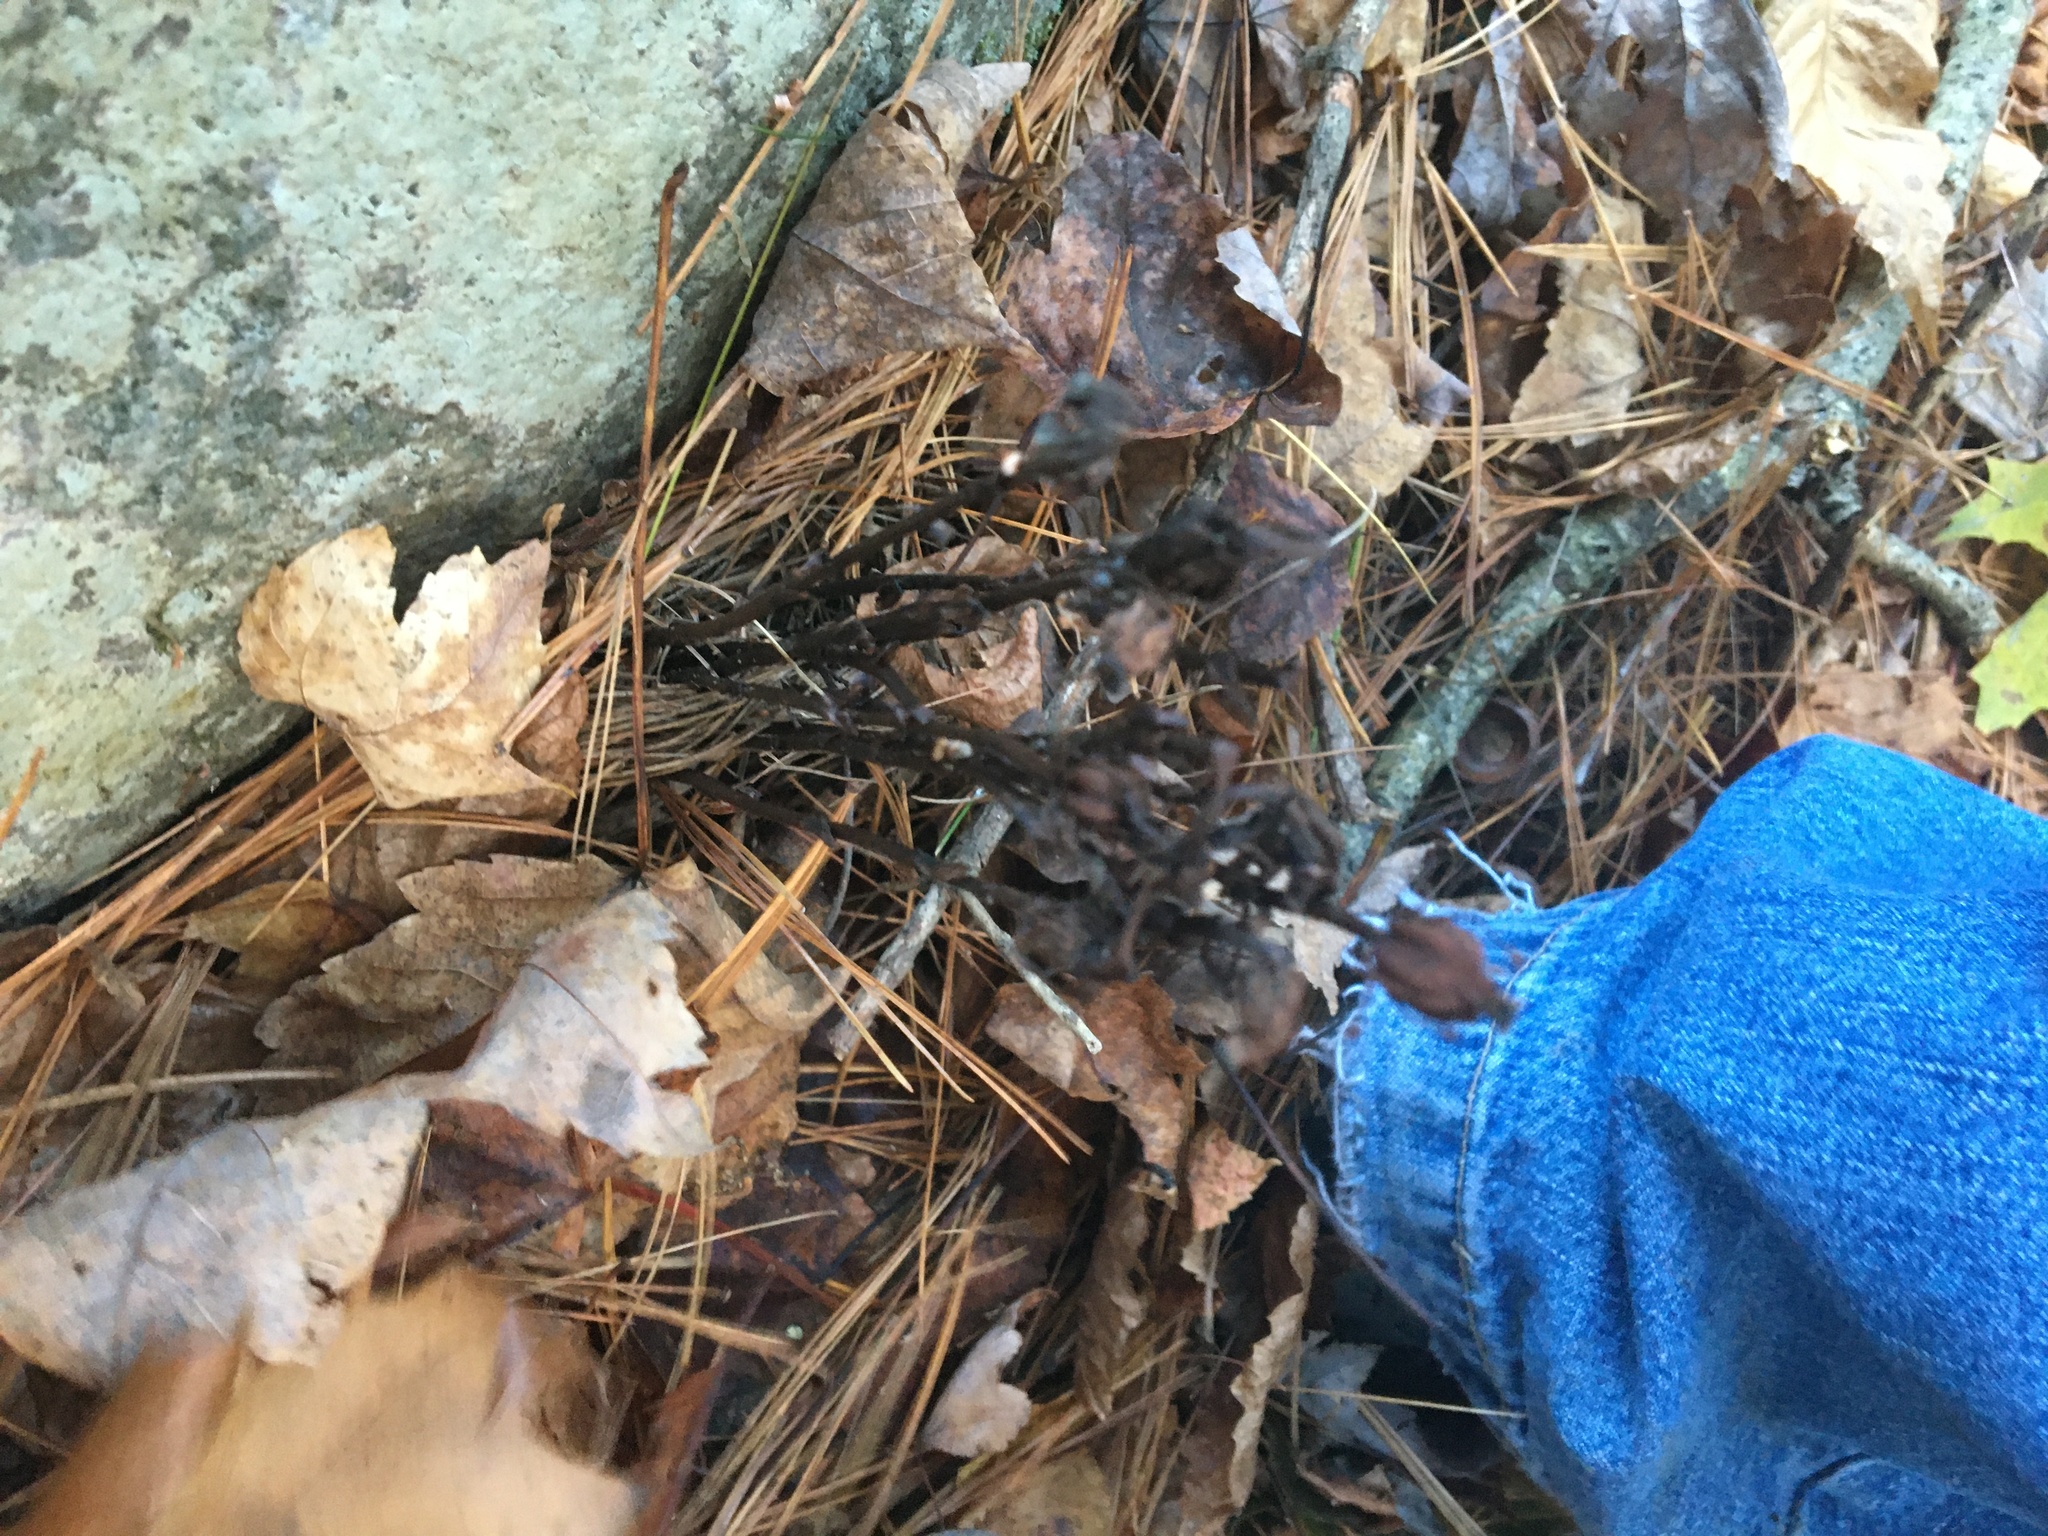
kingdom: Plantae
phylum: Tracheophyta
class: Magnoliopsida
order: Ericales
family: Ericaceae
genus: Monotropa
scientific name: Monotropa uniflora
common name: Convulsion root
